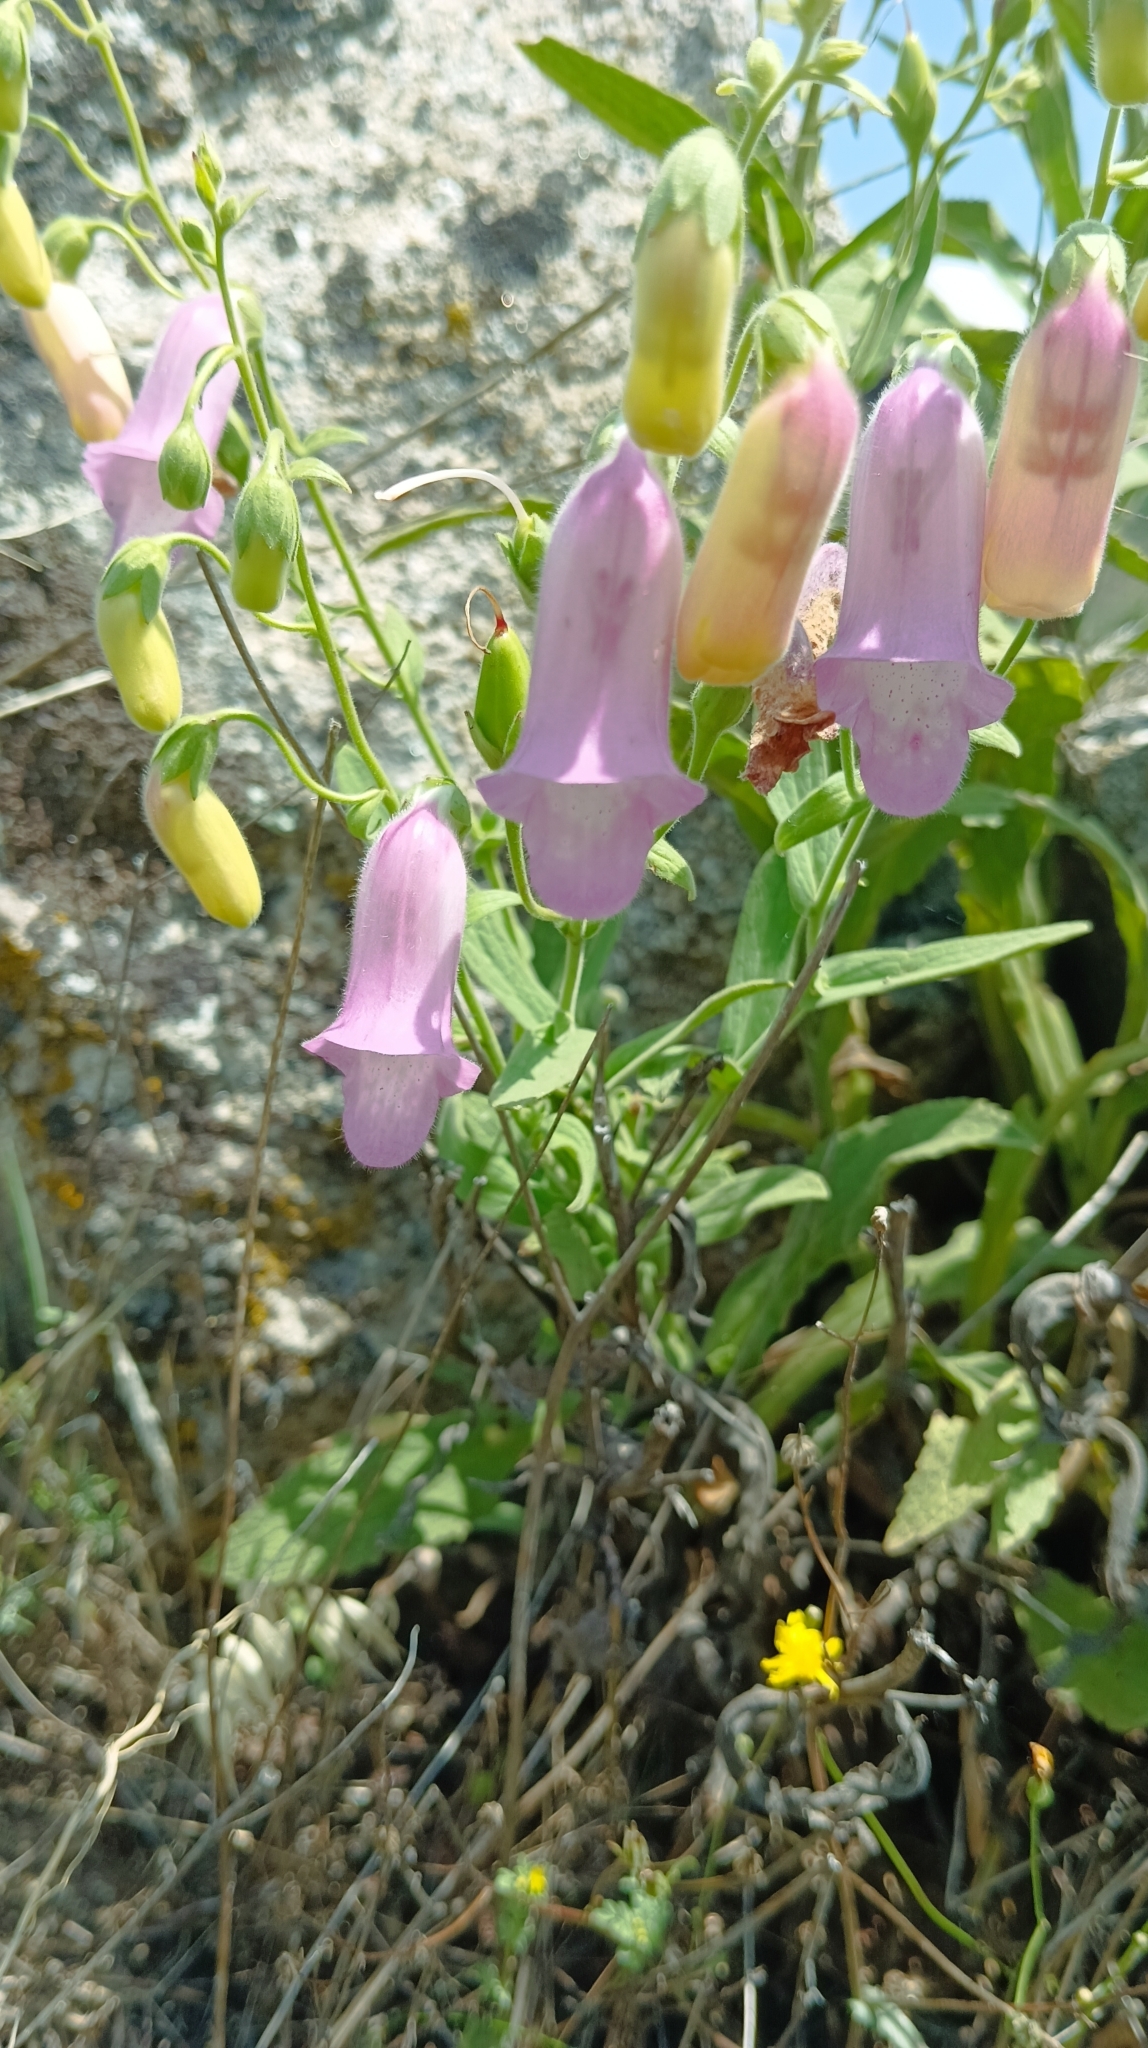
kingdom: Plantae
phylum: Tracheophyta
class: Magnoliopsida
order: Lamiales
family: Plantaginaceae
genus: Digitalis
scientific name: Digitalis thapsi
